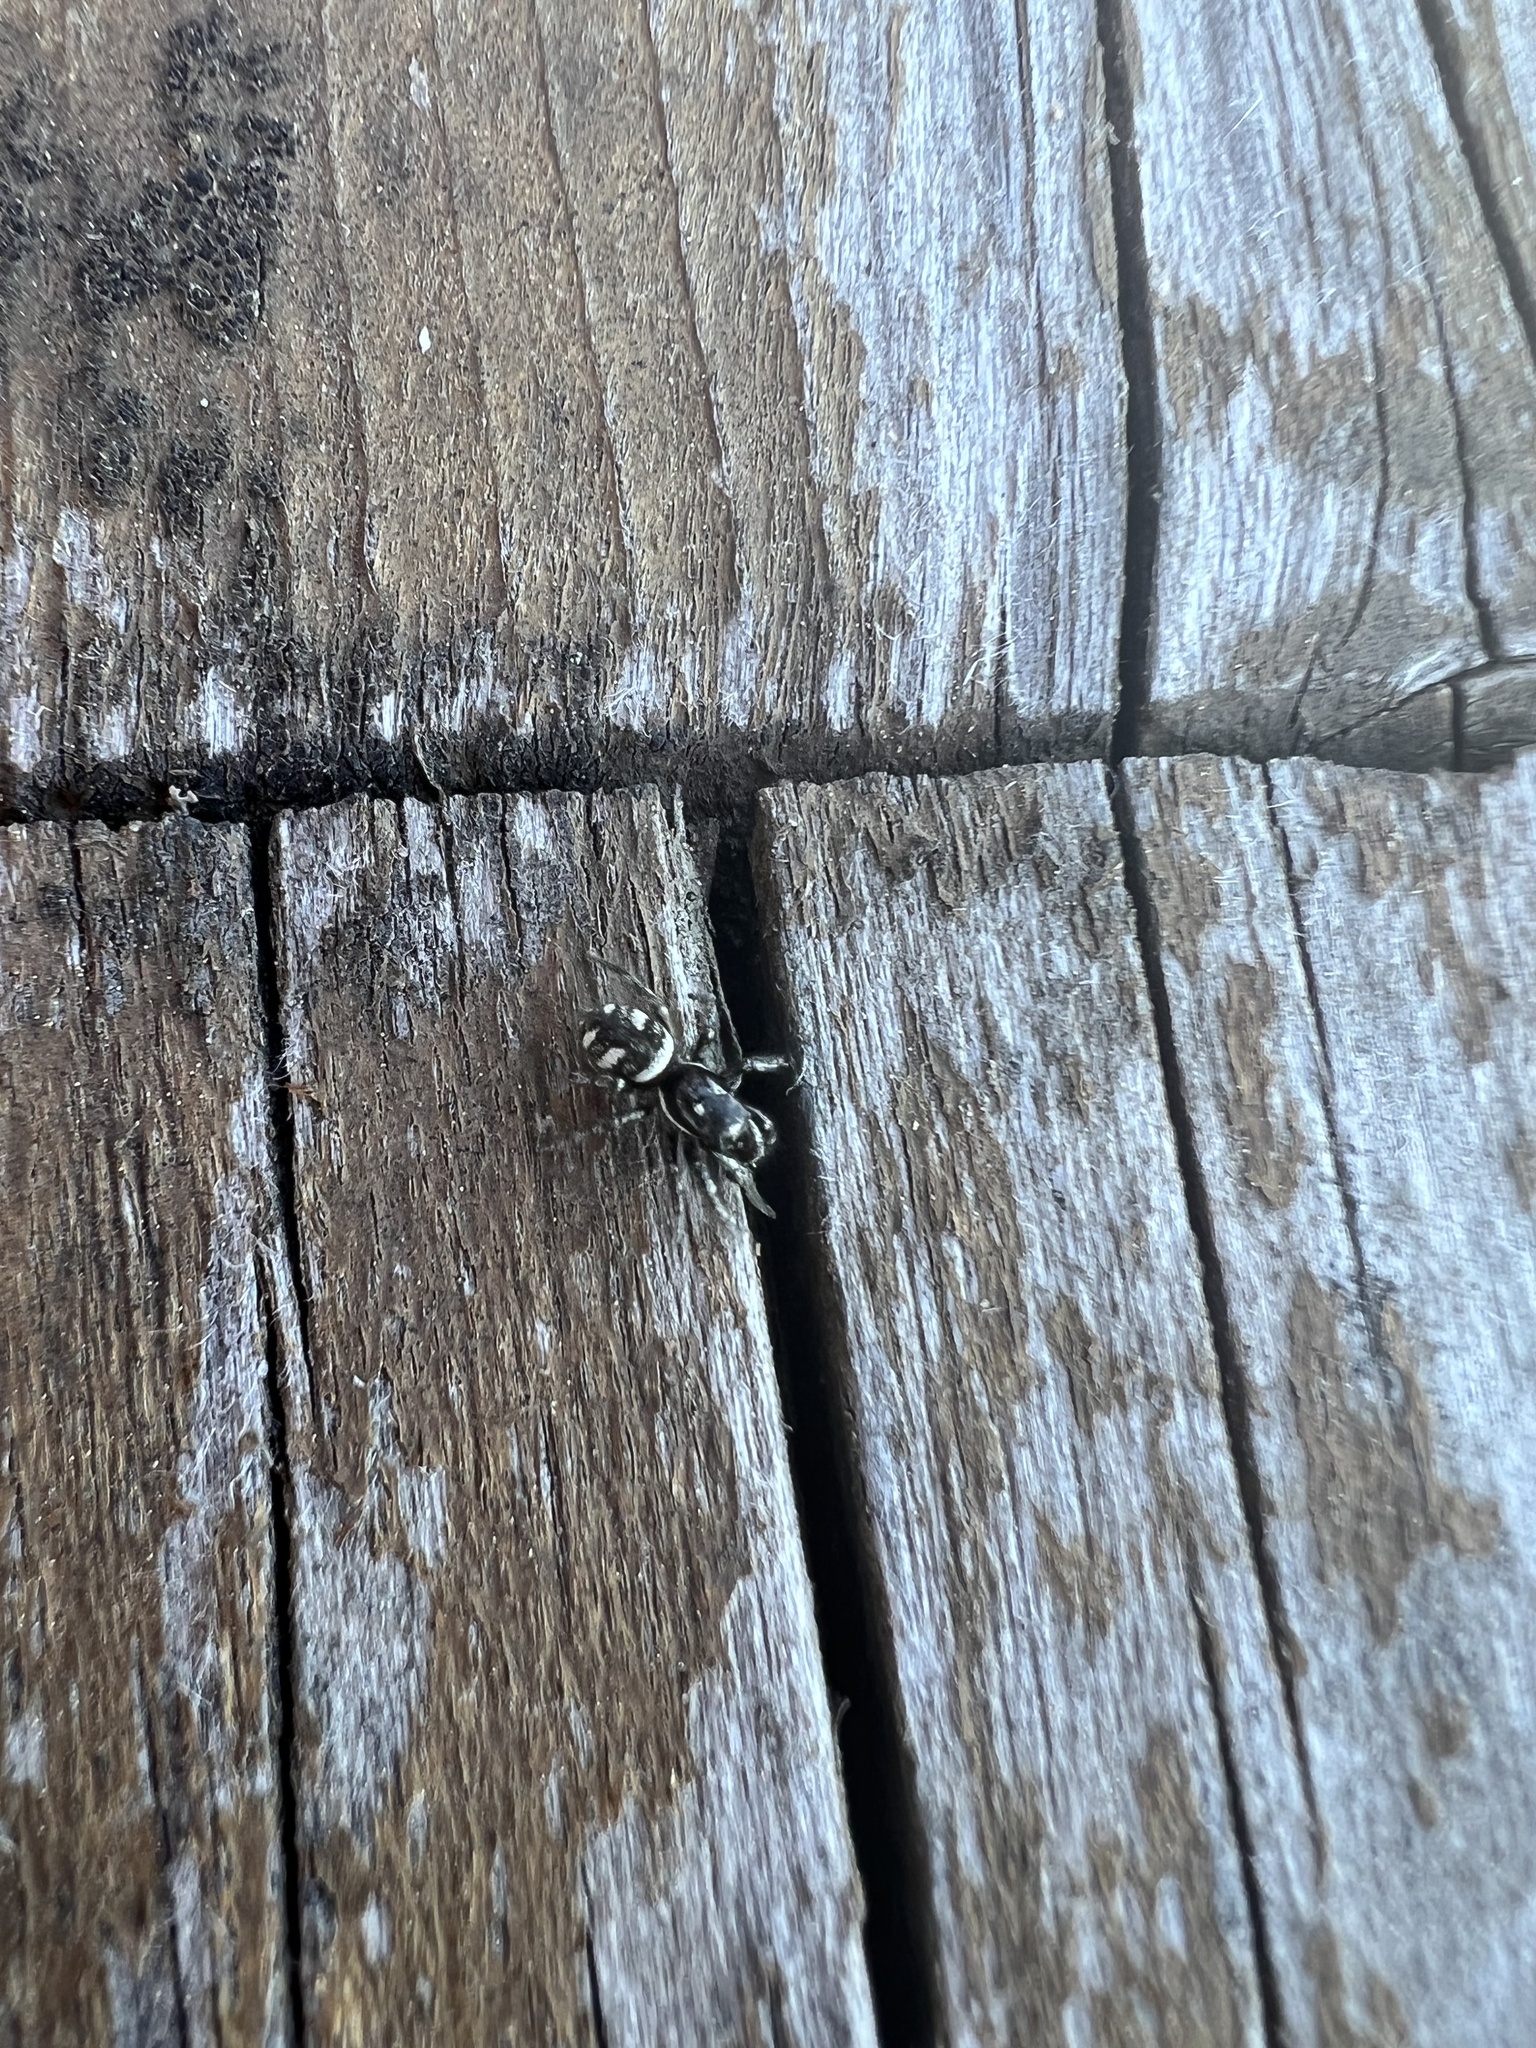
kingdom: Animalia
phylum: Arthropoda
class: Arachnida
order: Araneae
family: Salticidae
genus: Salticus
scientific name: Salticus scenicus
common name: Zebra jumper
